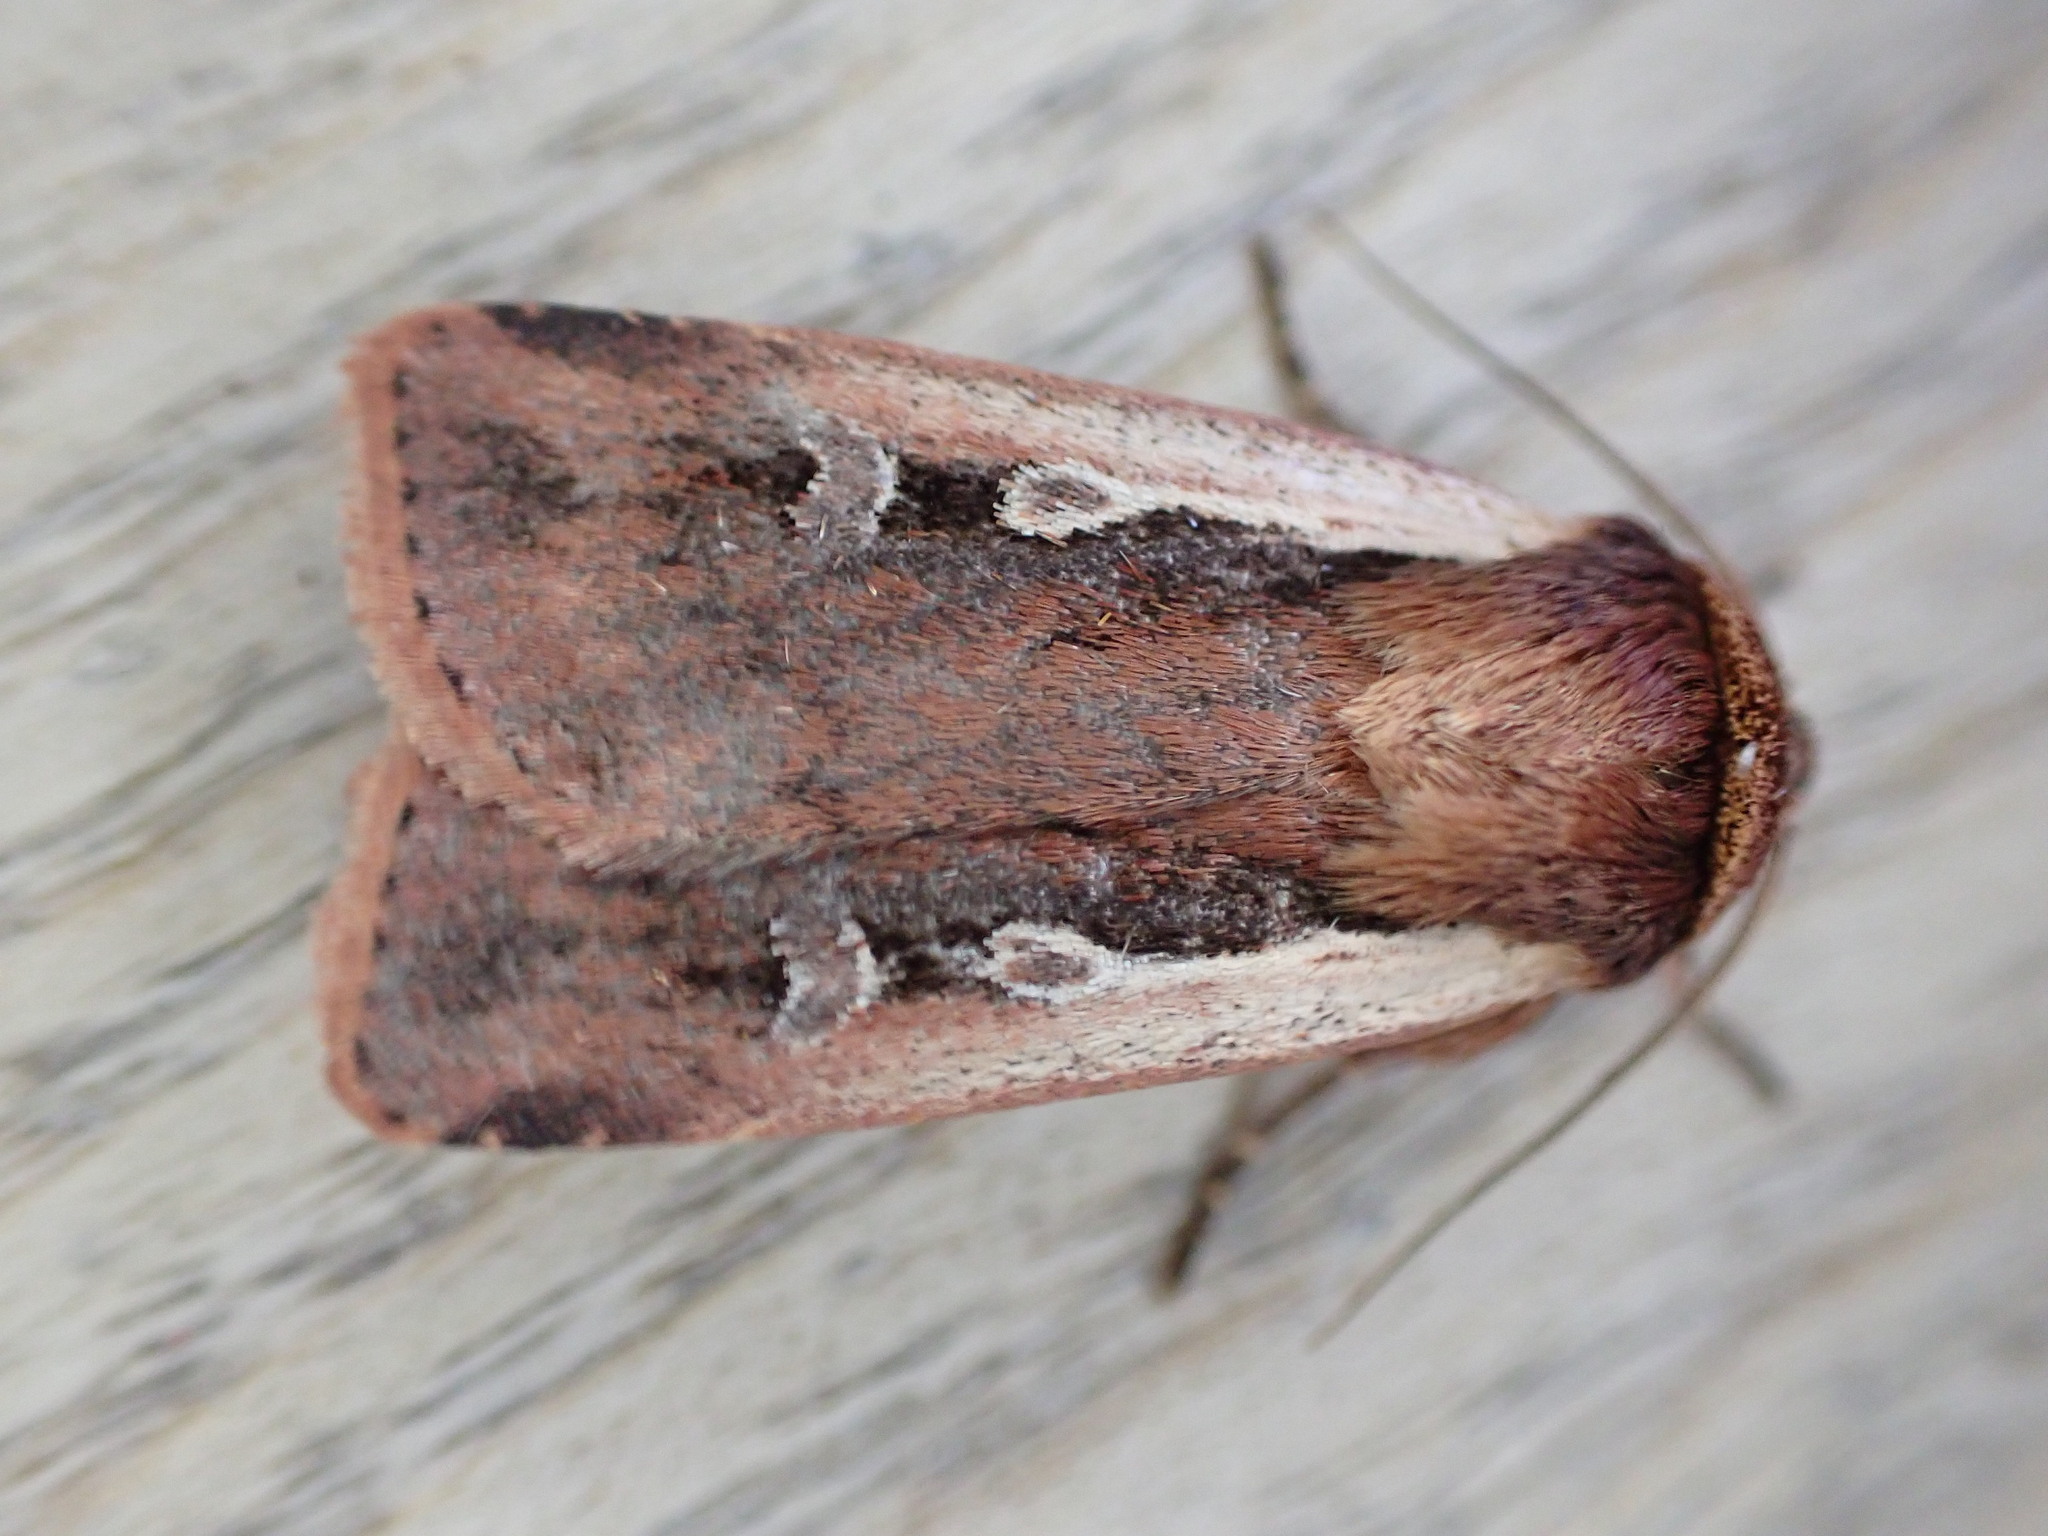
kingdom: Animalia
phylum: Arthropoda
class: Insecta
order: Lepidoptera
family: Noctuidae
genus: Ochropleura
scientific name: Ochropleura plecta
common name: Flame shoulder
